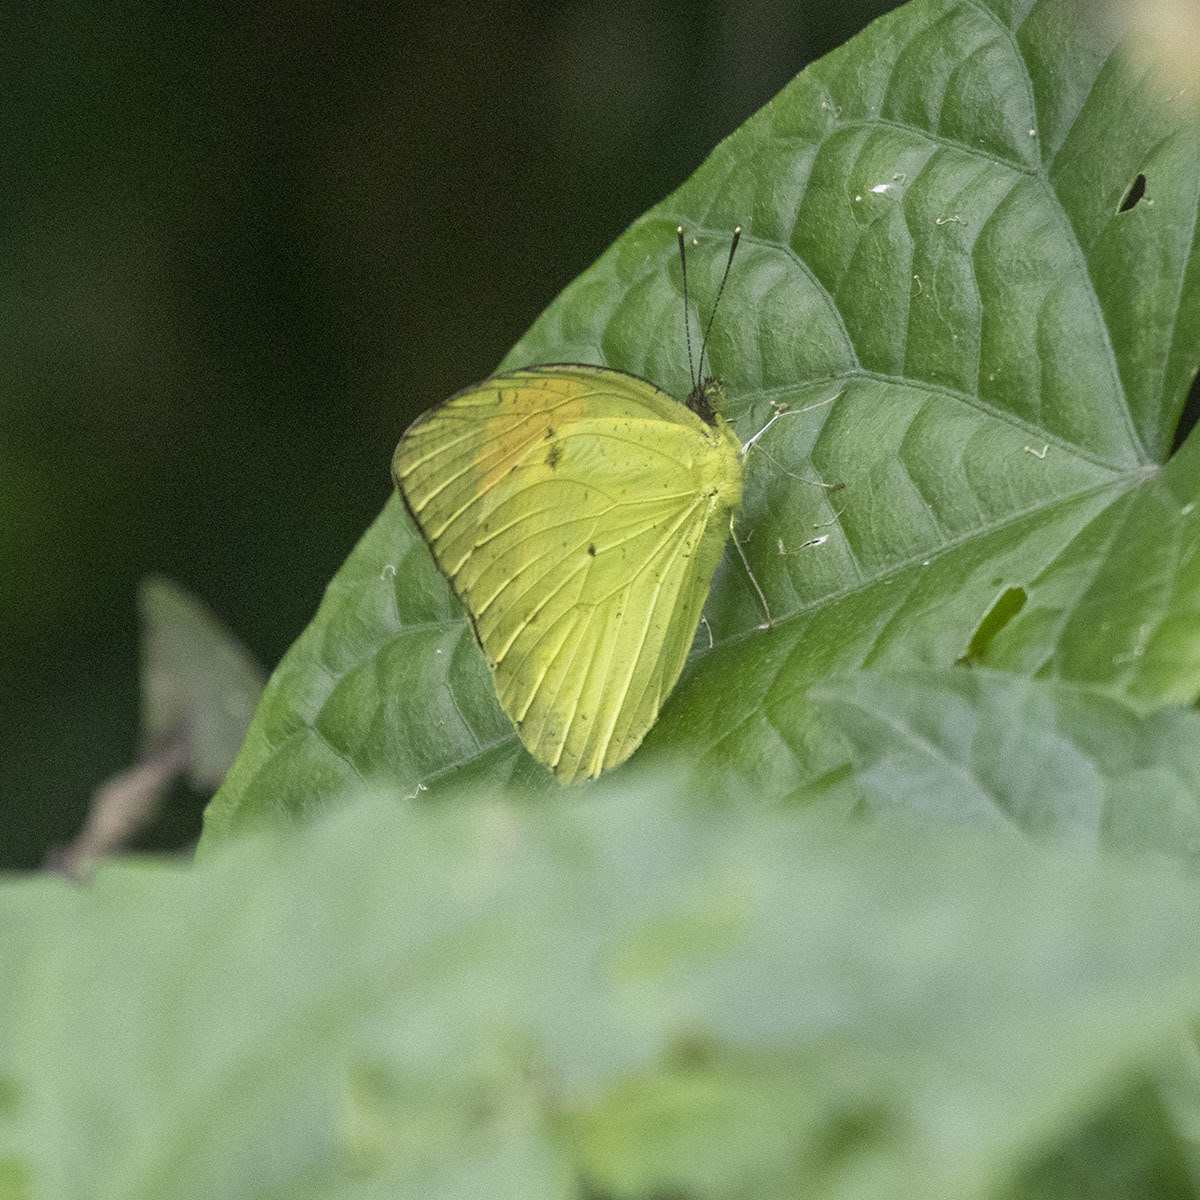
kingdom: Animalia
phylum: Arthropoda
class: Insecta
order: Lepidoptera
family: Pieridae
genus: Ixias
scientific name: Ixias pyrene
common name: Yellow orange tip
